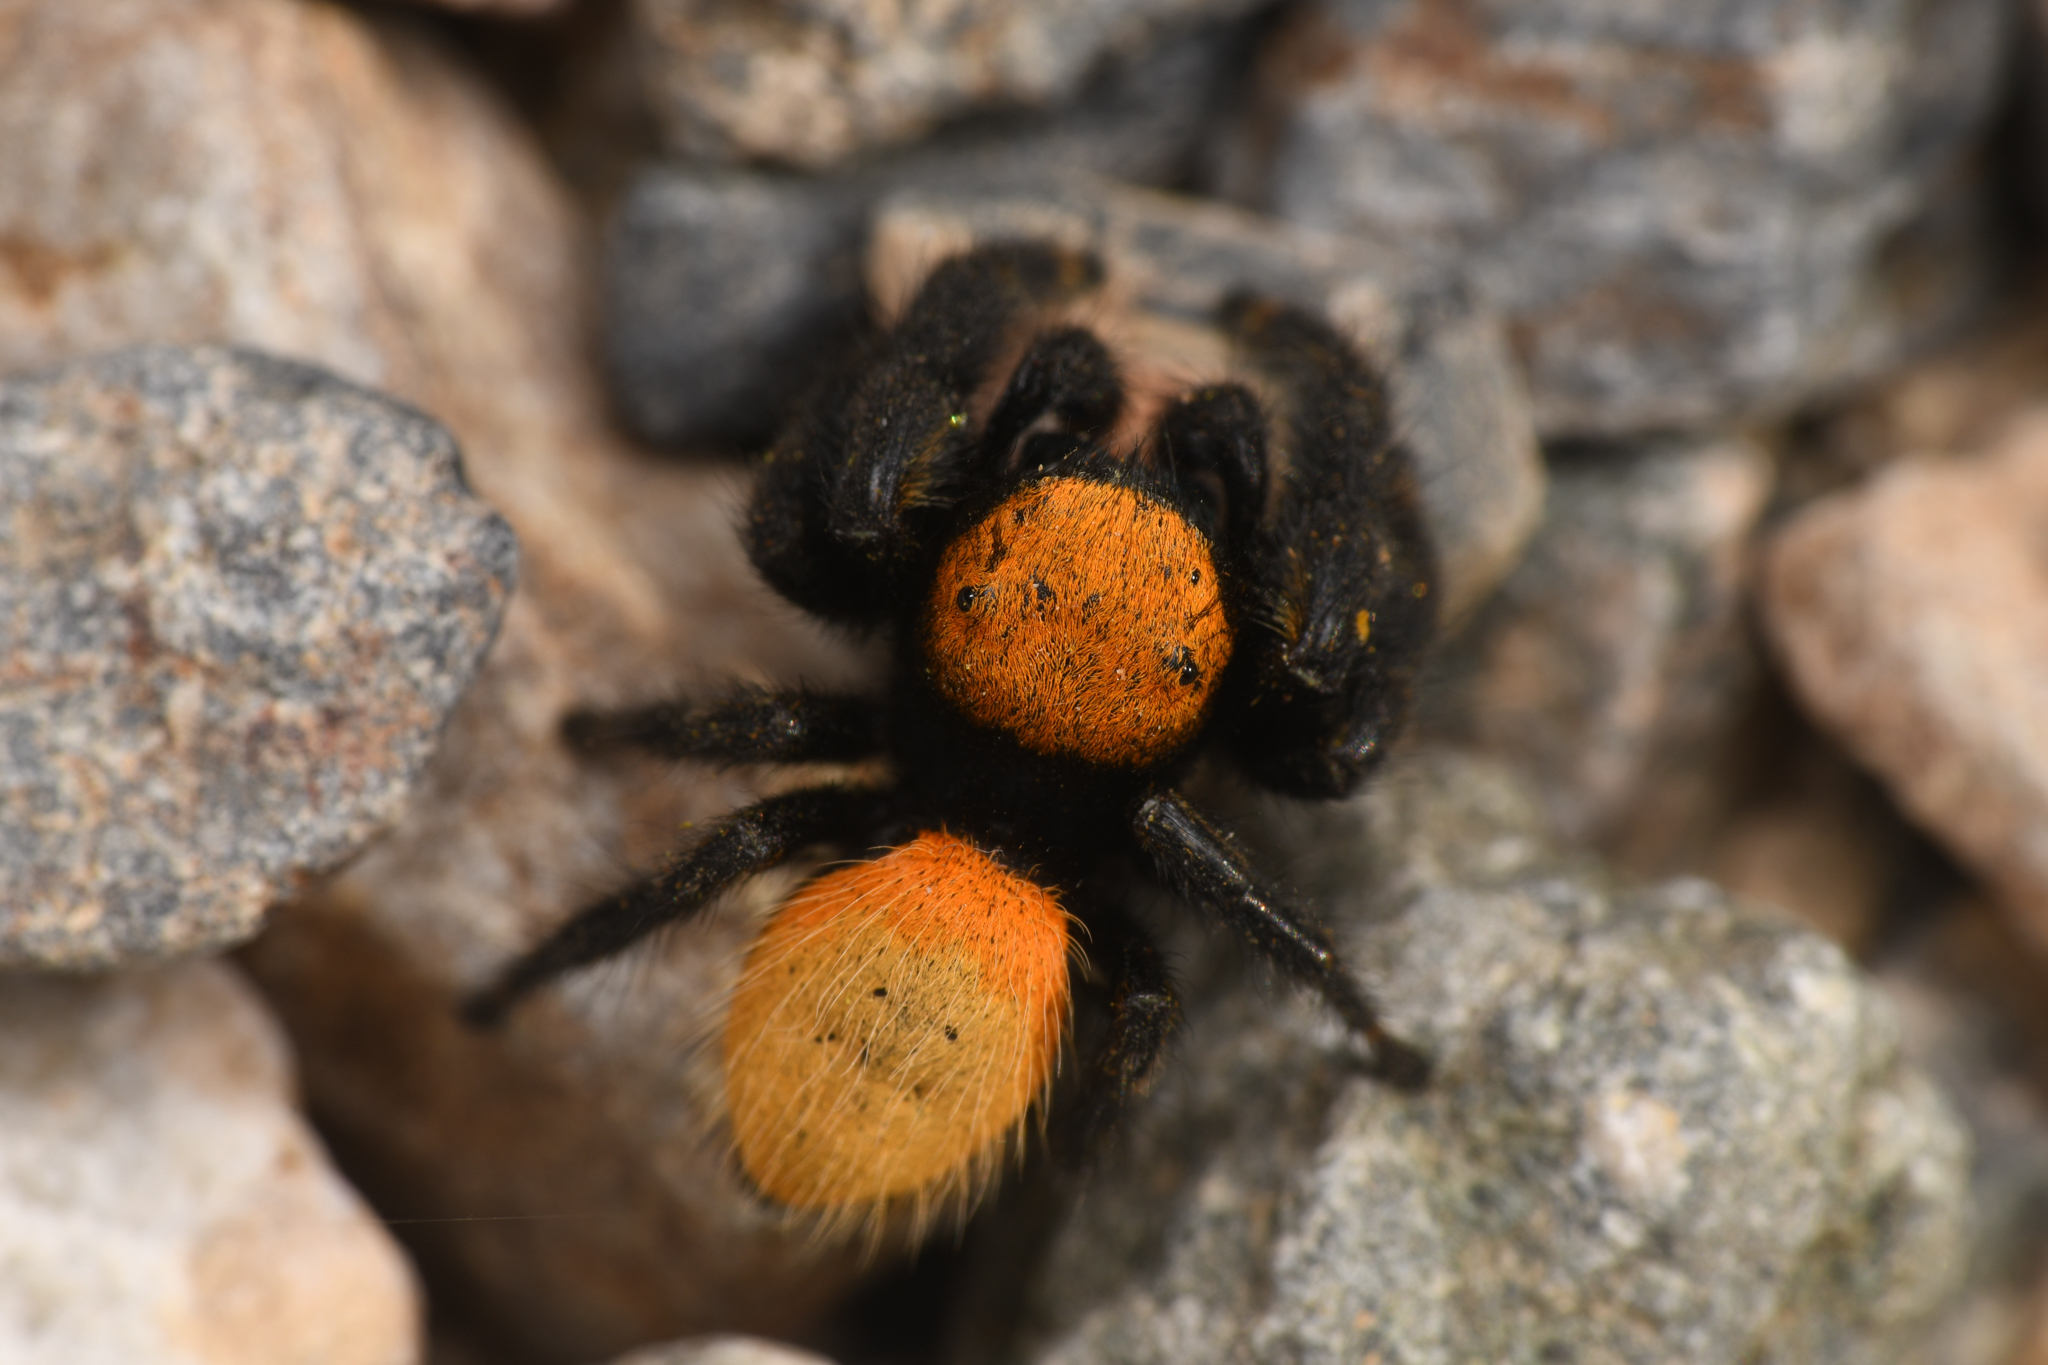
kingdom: Animalia
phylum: Arthropoda
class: Arachnida
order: Araneae
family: Salticidae
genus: Phidippus
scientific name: Phidippus nikites
